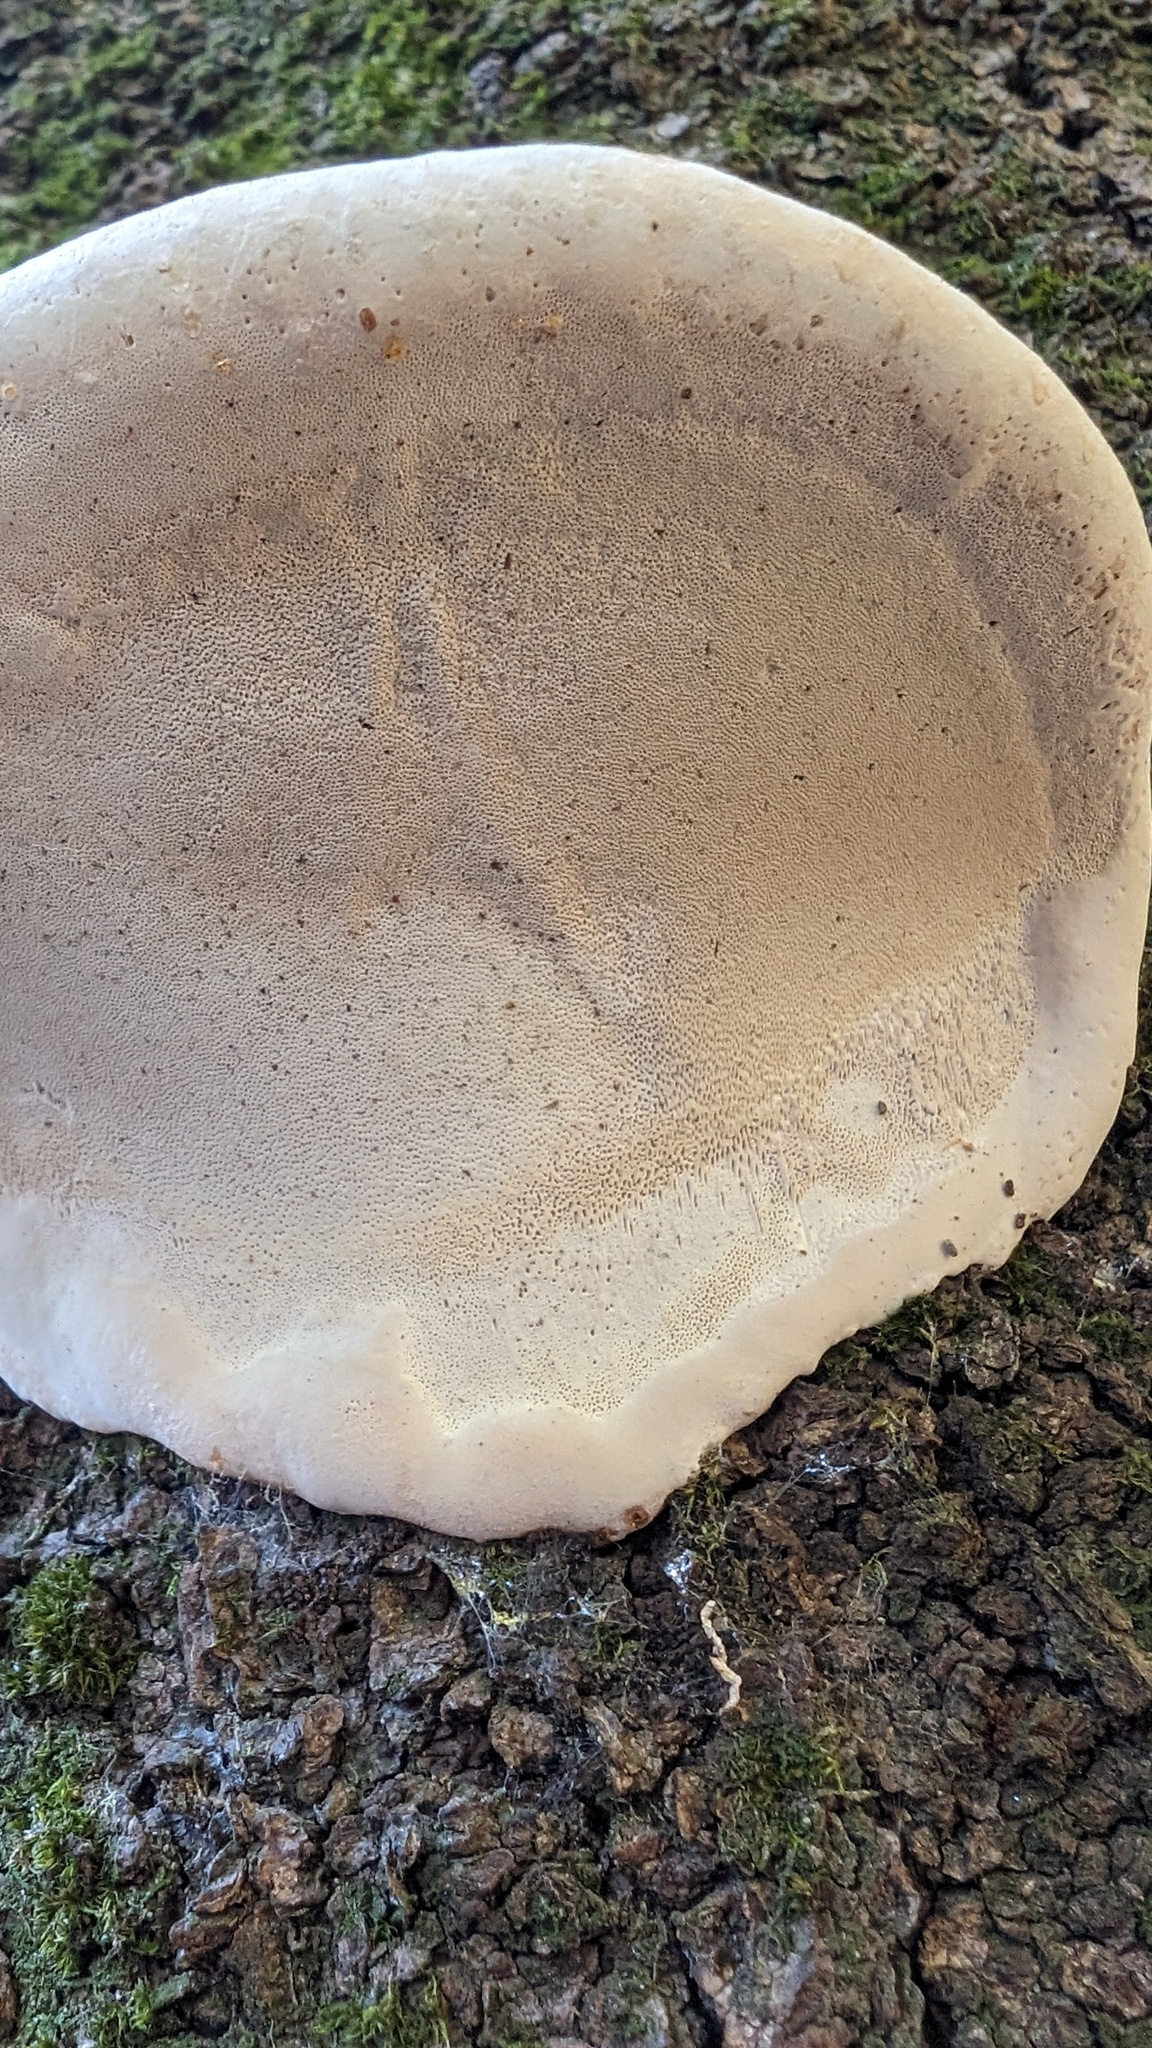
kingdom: Fungi
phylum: Basidiomycota
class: Agaricomycetes
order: Polyporales
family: Polyporaceae
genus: Ganoderma
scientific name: Ganoderma applanatum
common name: Artist's bracket
